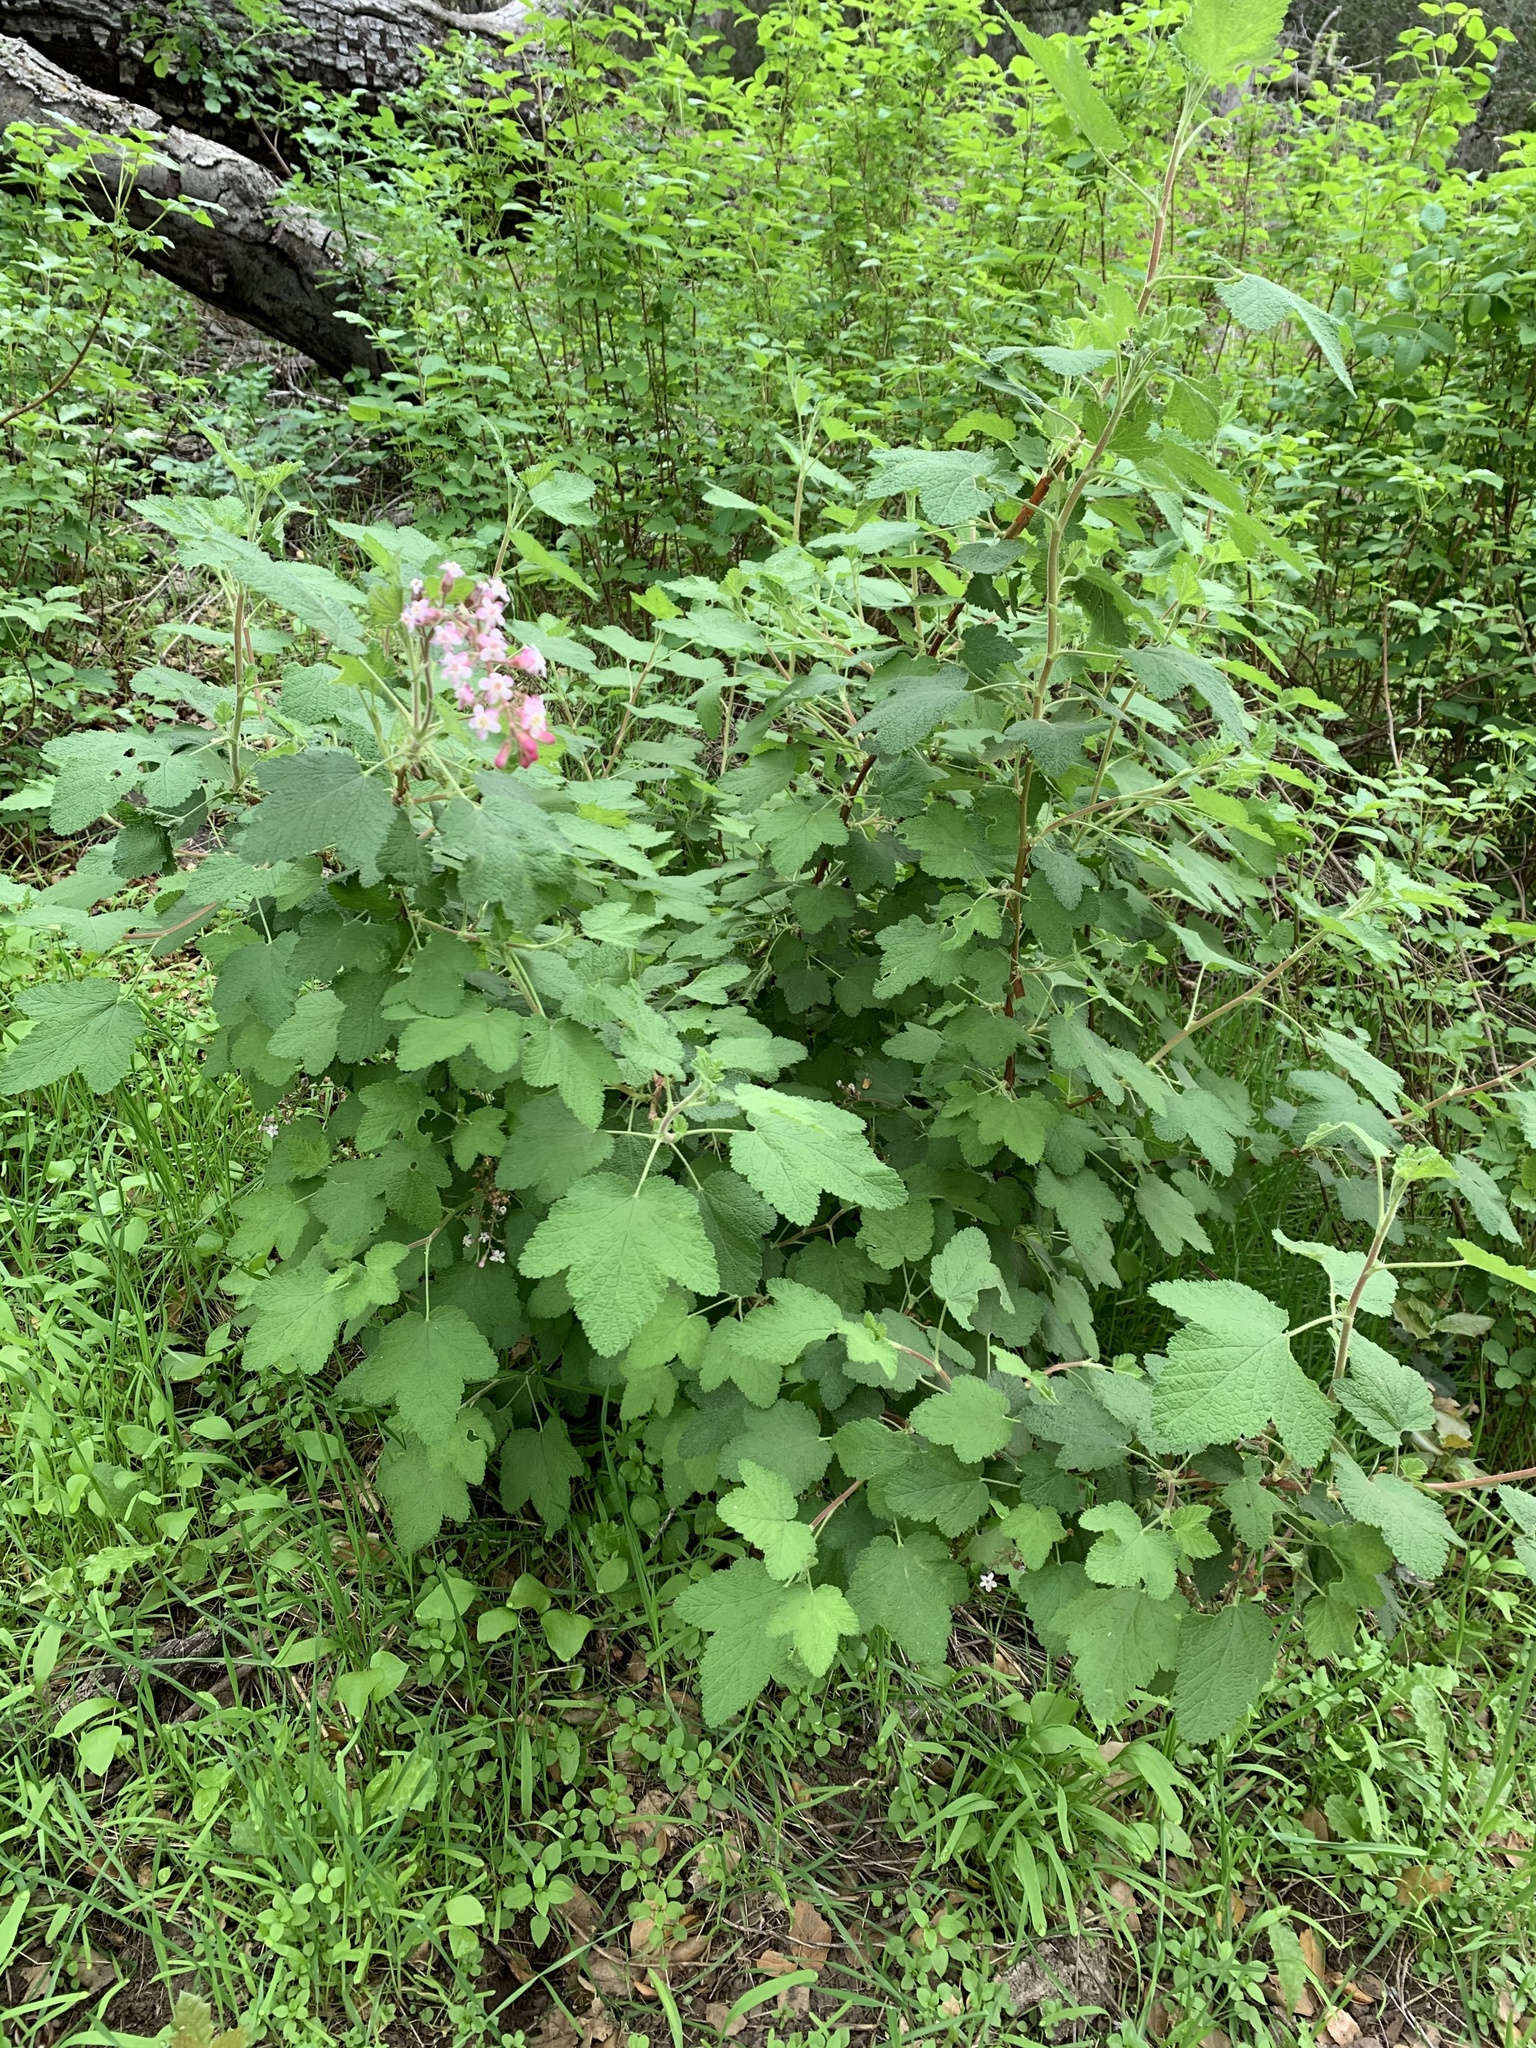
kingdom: Plantae
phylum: Tracheophyta
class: Magnoliopsida
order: Saxifragales
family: Grossulariaceae
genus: Ribes
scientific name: Ribes malvaceum
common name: Chaparral currant
